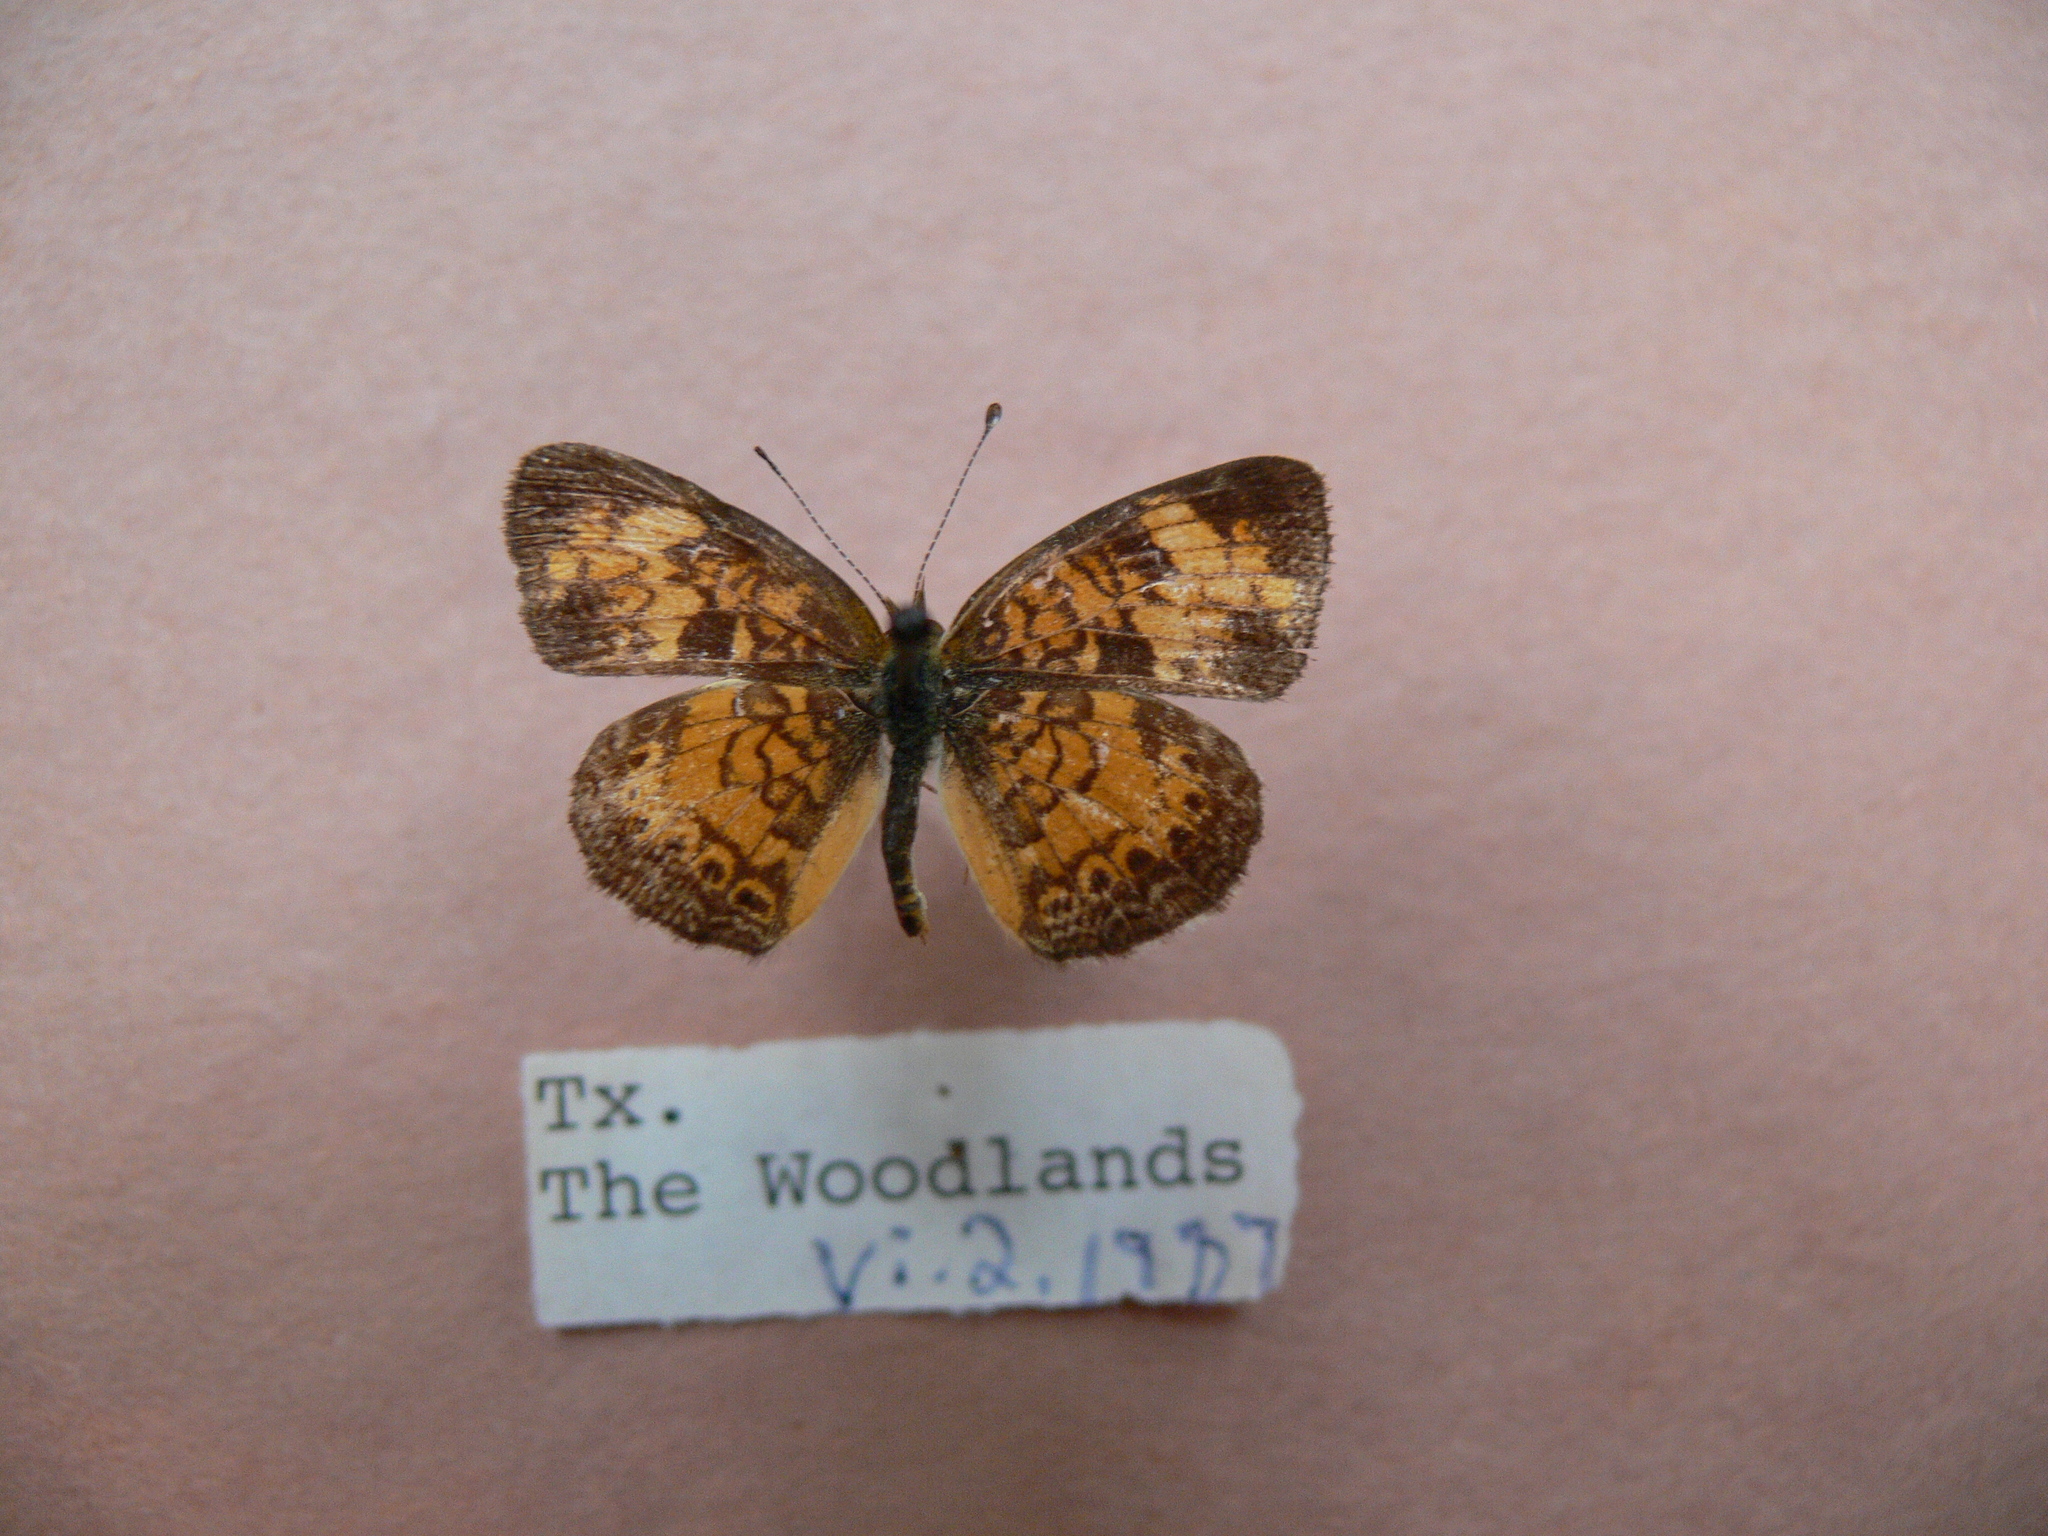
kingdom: Animalia
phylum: Arthropoda
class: Insecta
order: Lepidoptera
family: Nymphalidae
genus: Phyciodes
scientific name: Phyciodes tharos
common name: Pearl crescent
